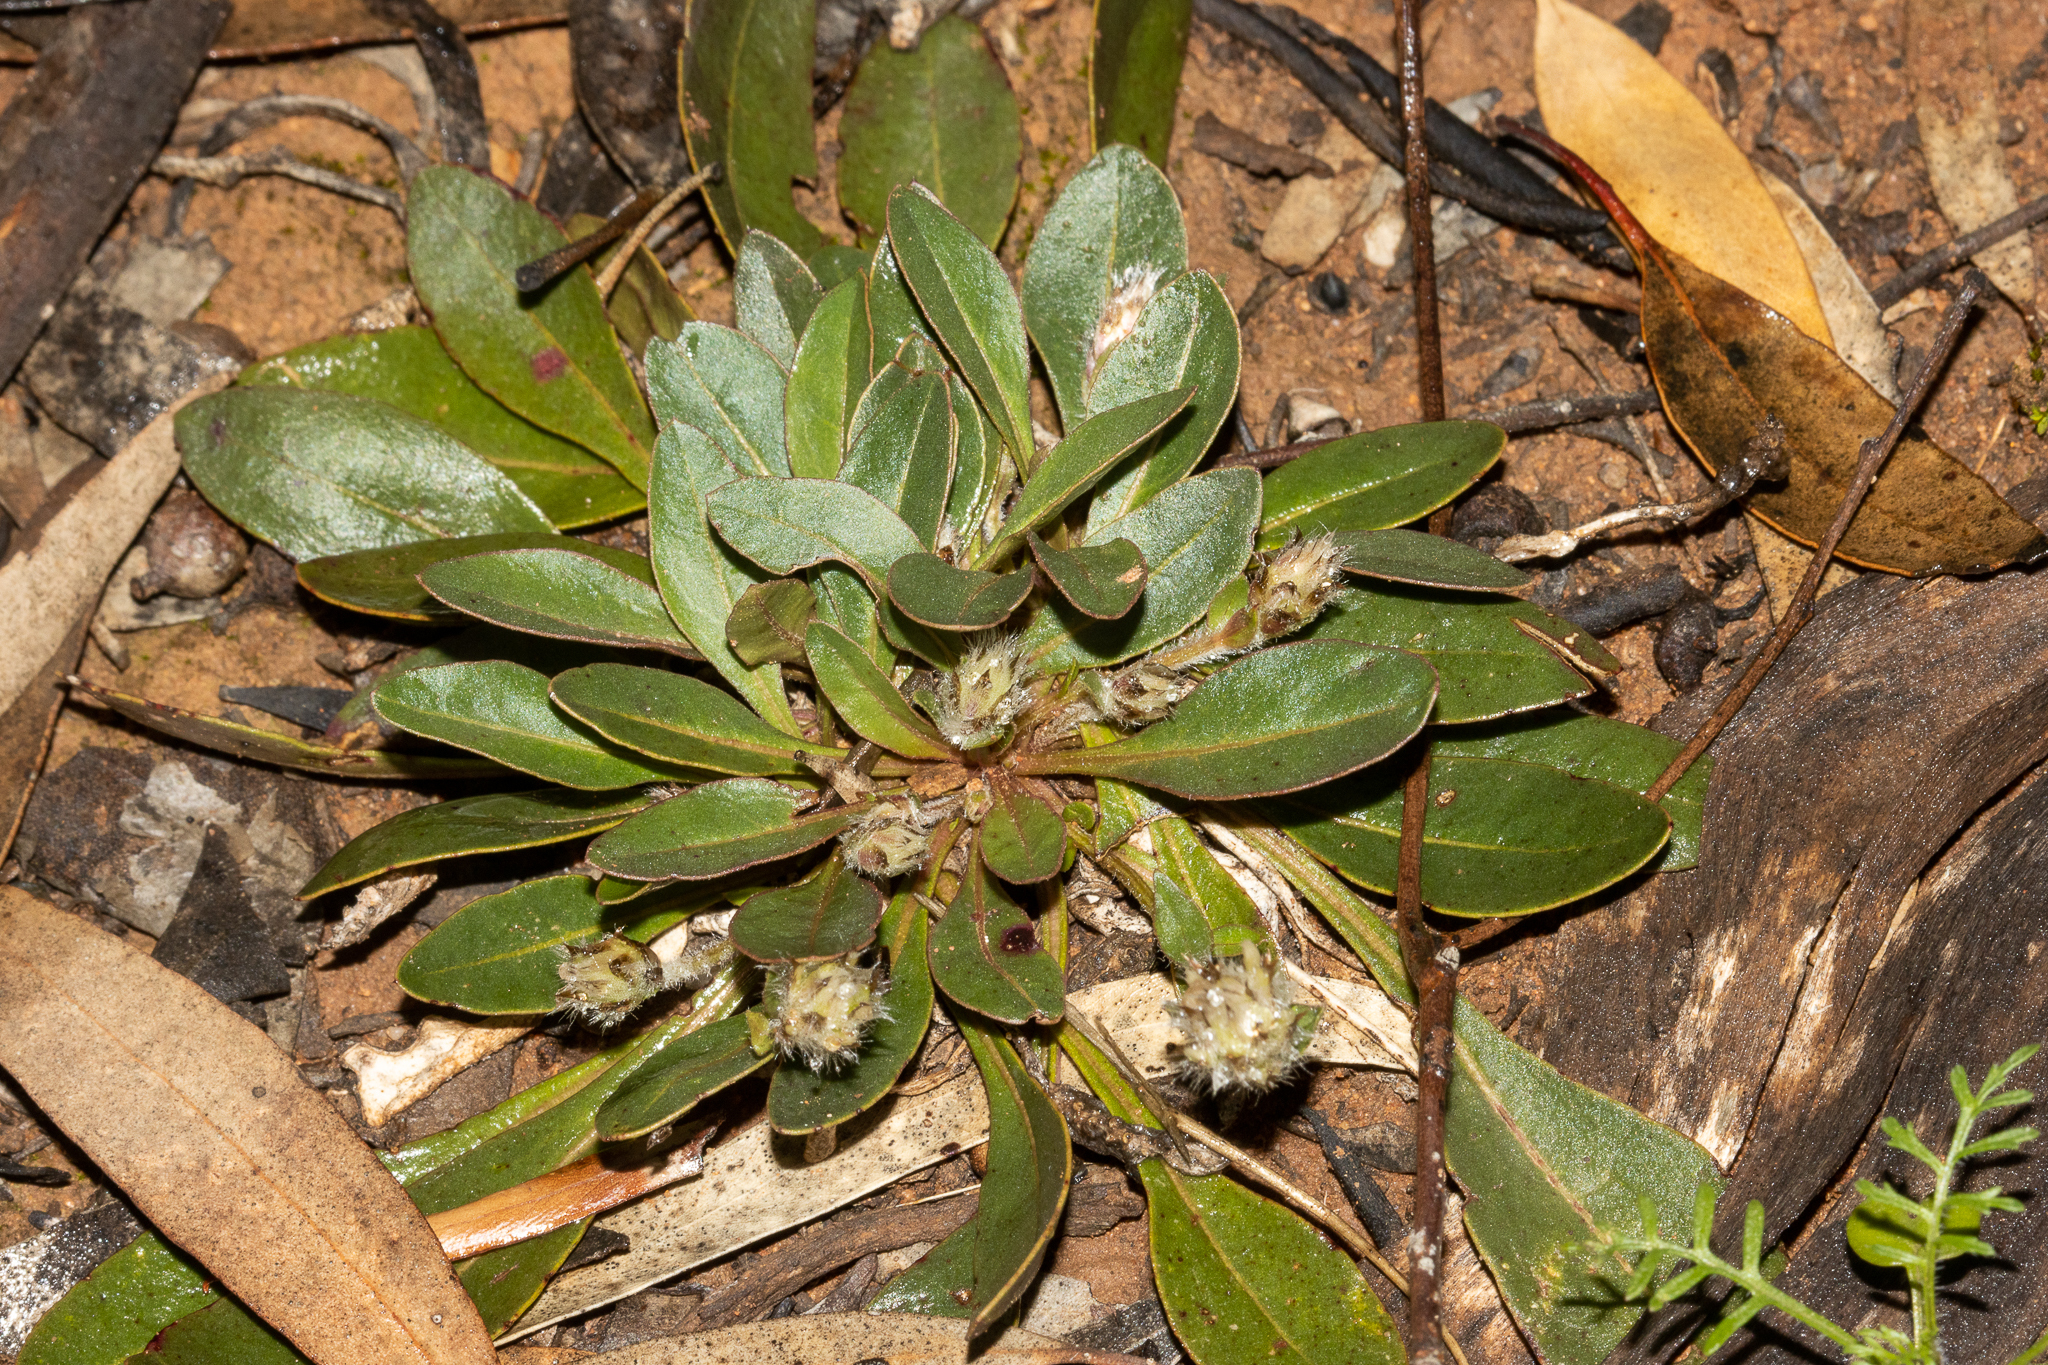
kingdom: Plantae
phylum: Tracheophyta
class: Magnoliopsida
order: Caryophyllales
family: Amaranthaceae
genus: Ptilotus
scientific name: Ptilotus seminudus
